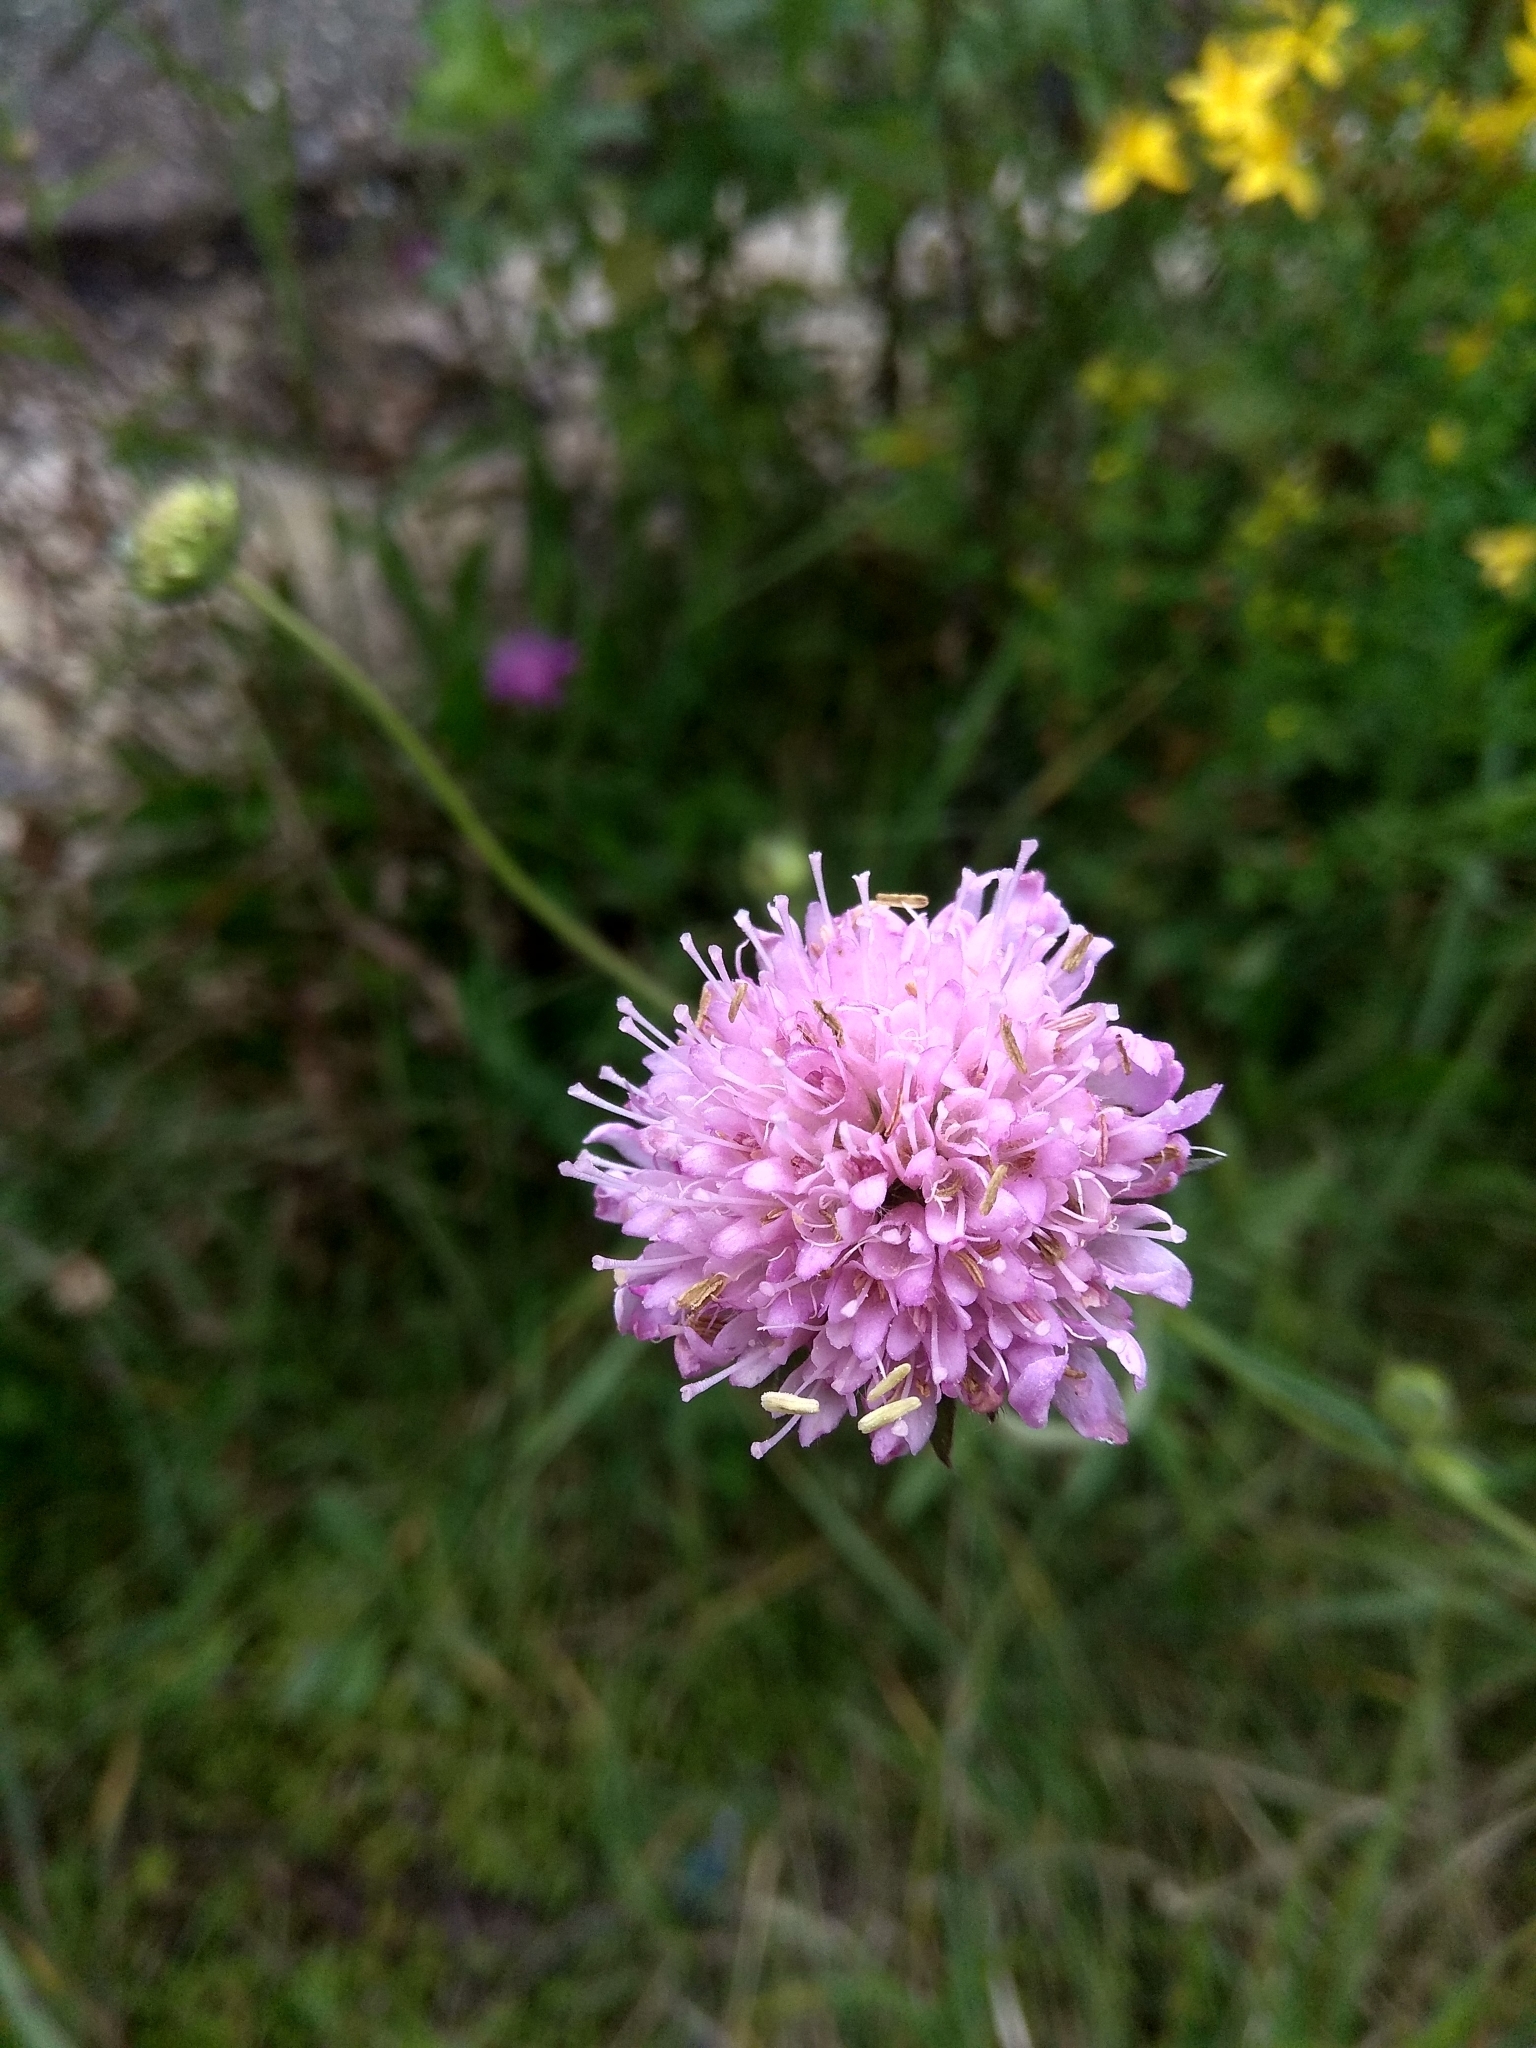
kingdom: Plantae
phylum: Tracheophyta
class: Magnoliopsida
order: Dipsacales
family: Caprifoliaceae
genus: Knautia
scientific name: Knautia arvensis
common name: Field scabiosa
